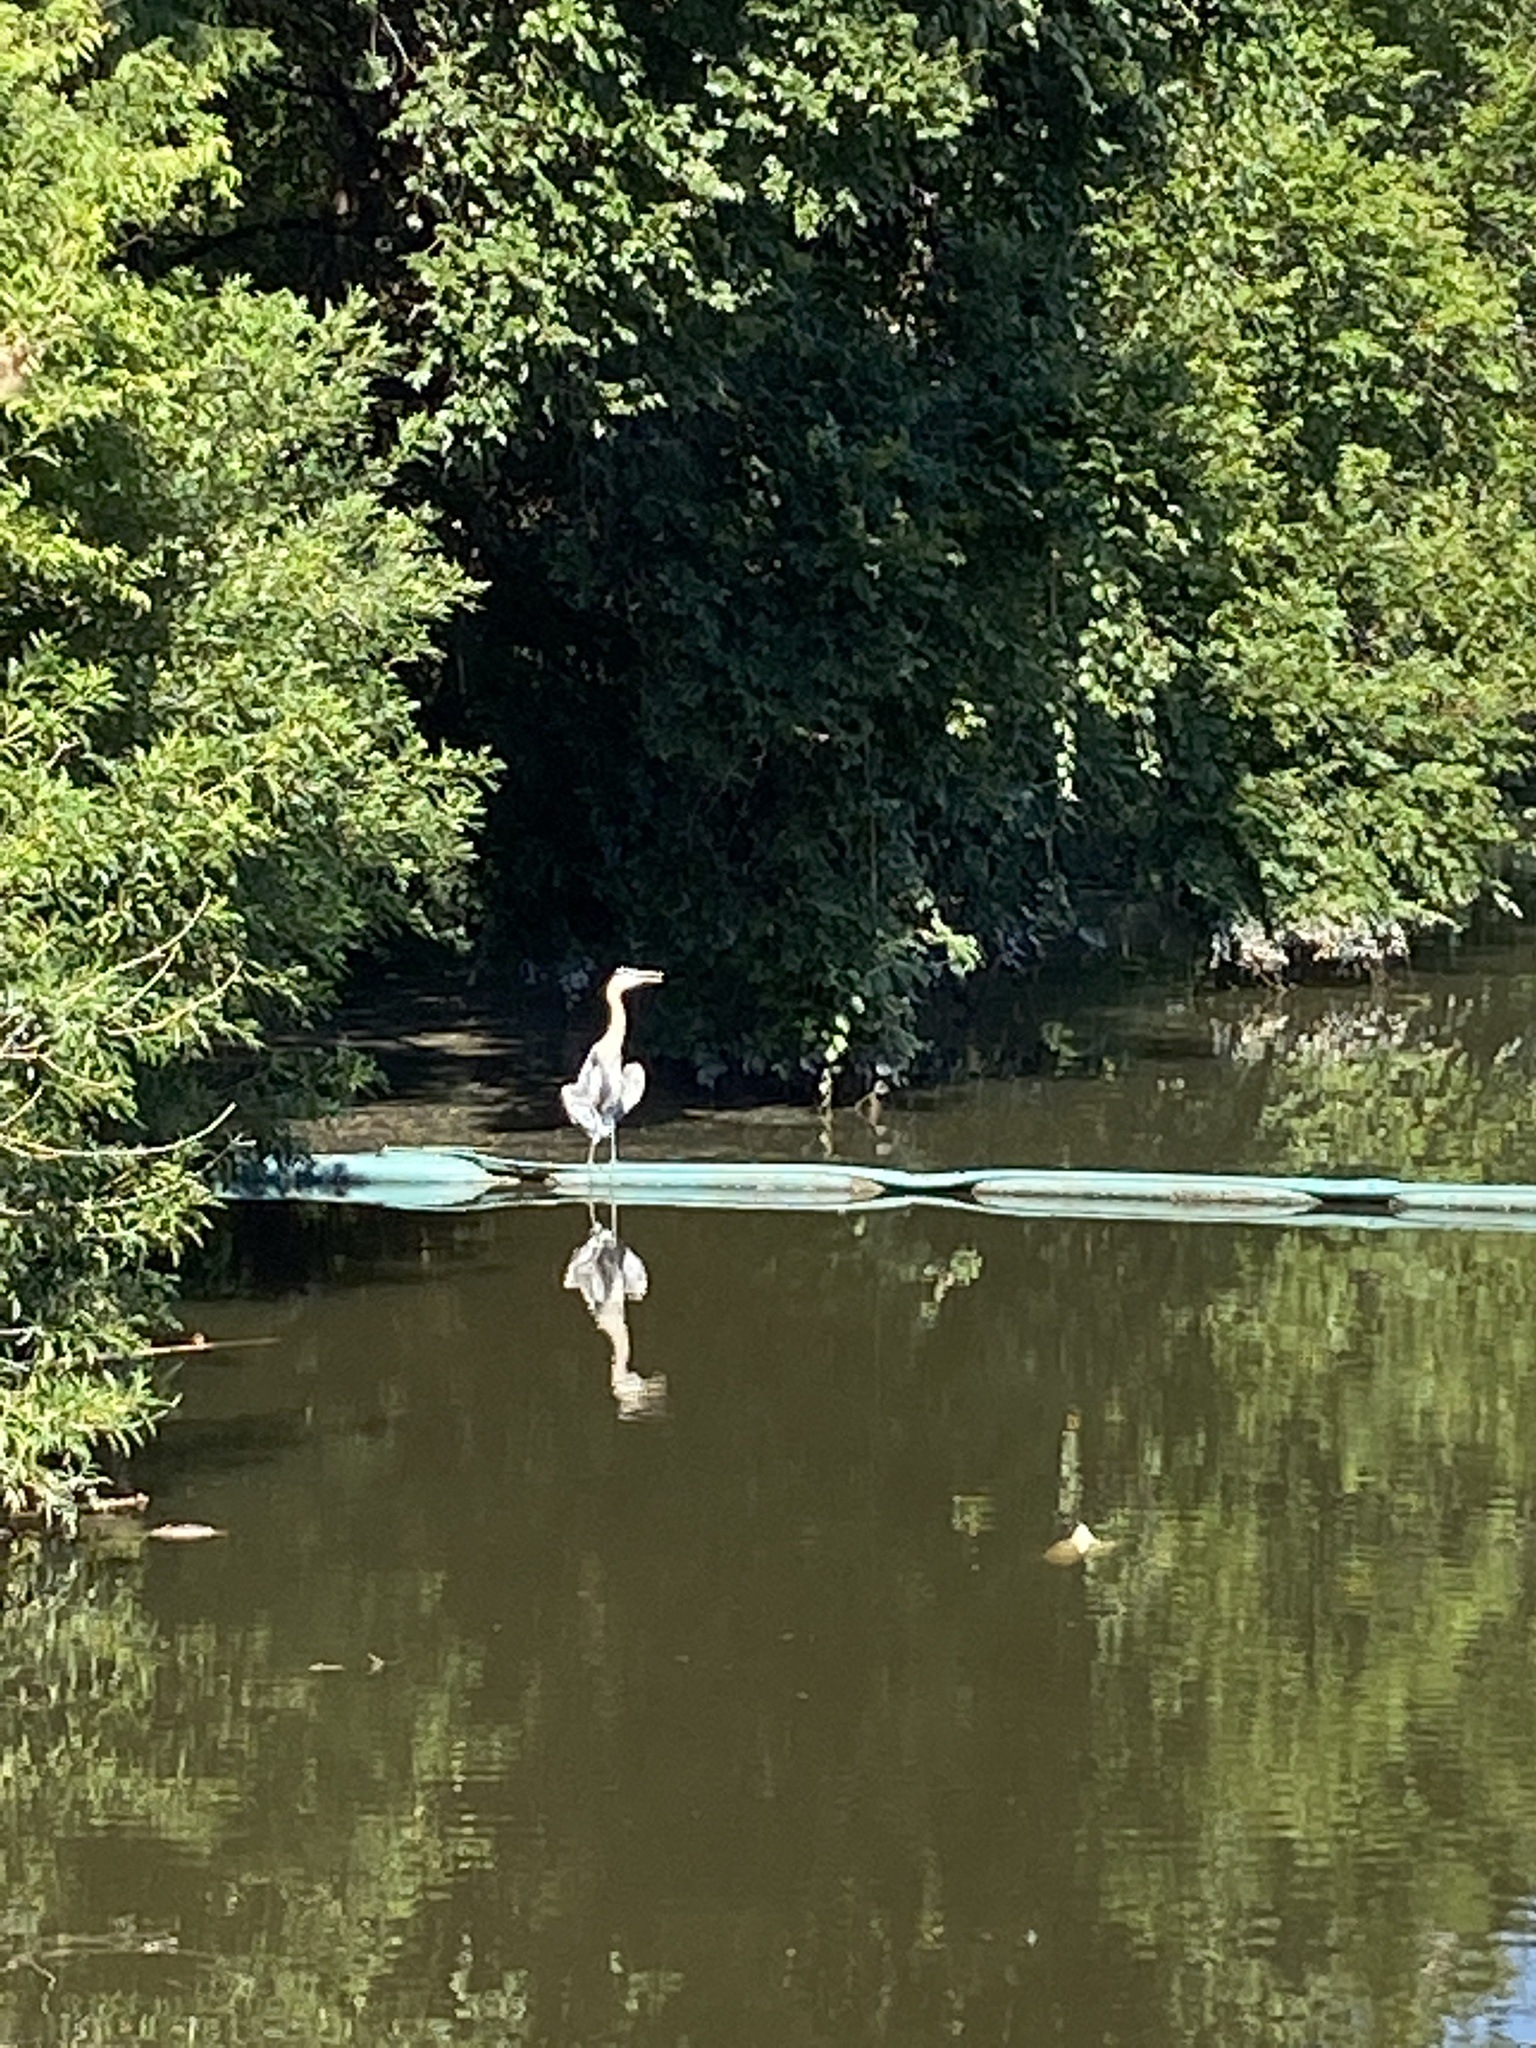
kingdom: Animalia
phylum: Chordata
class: Aves
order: Pelecaniformes
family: Ardeidae
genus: Ardea
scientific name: Ardea herodias
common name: Great blue heron
